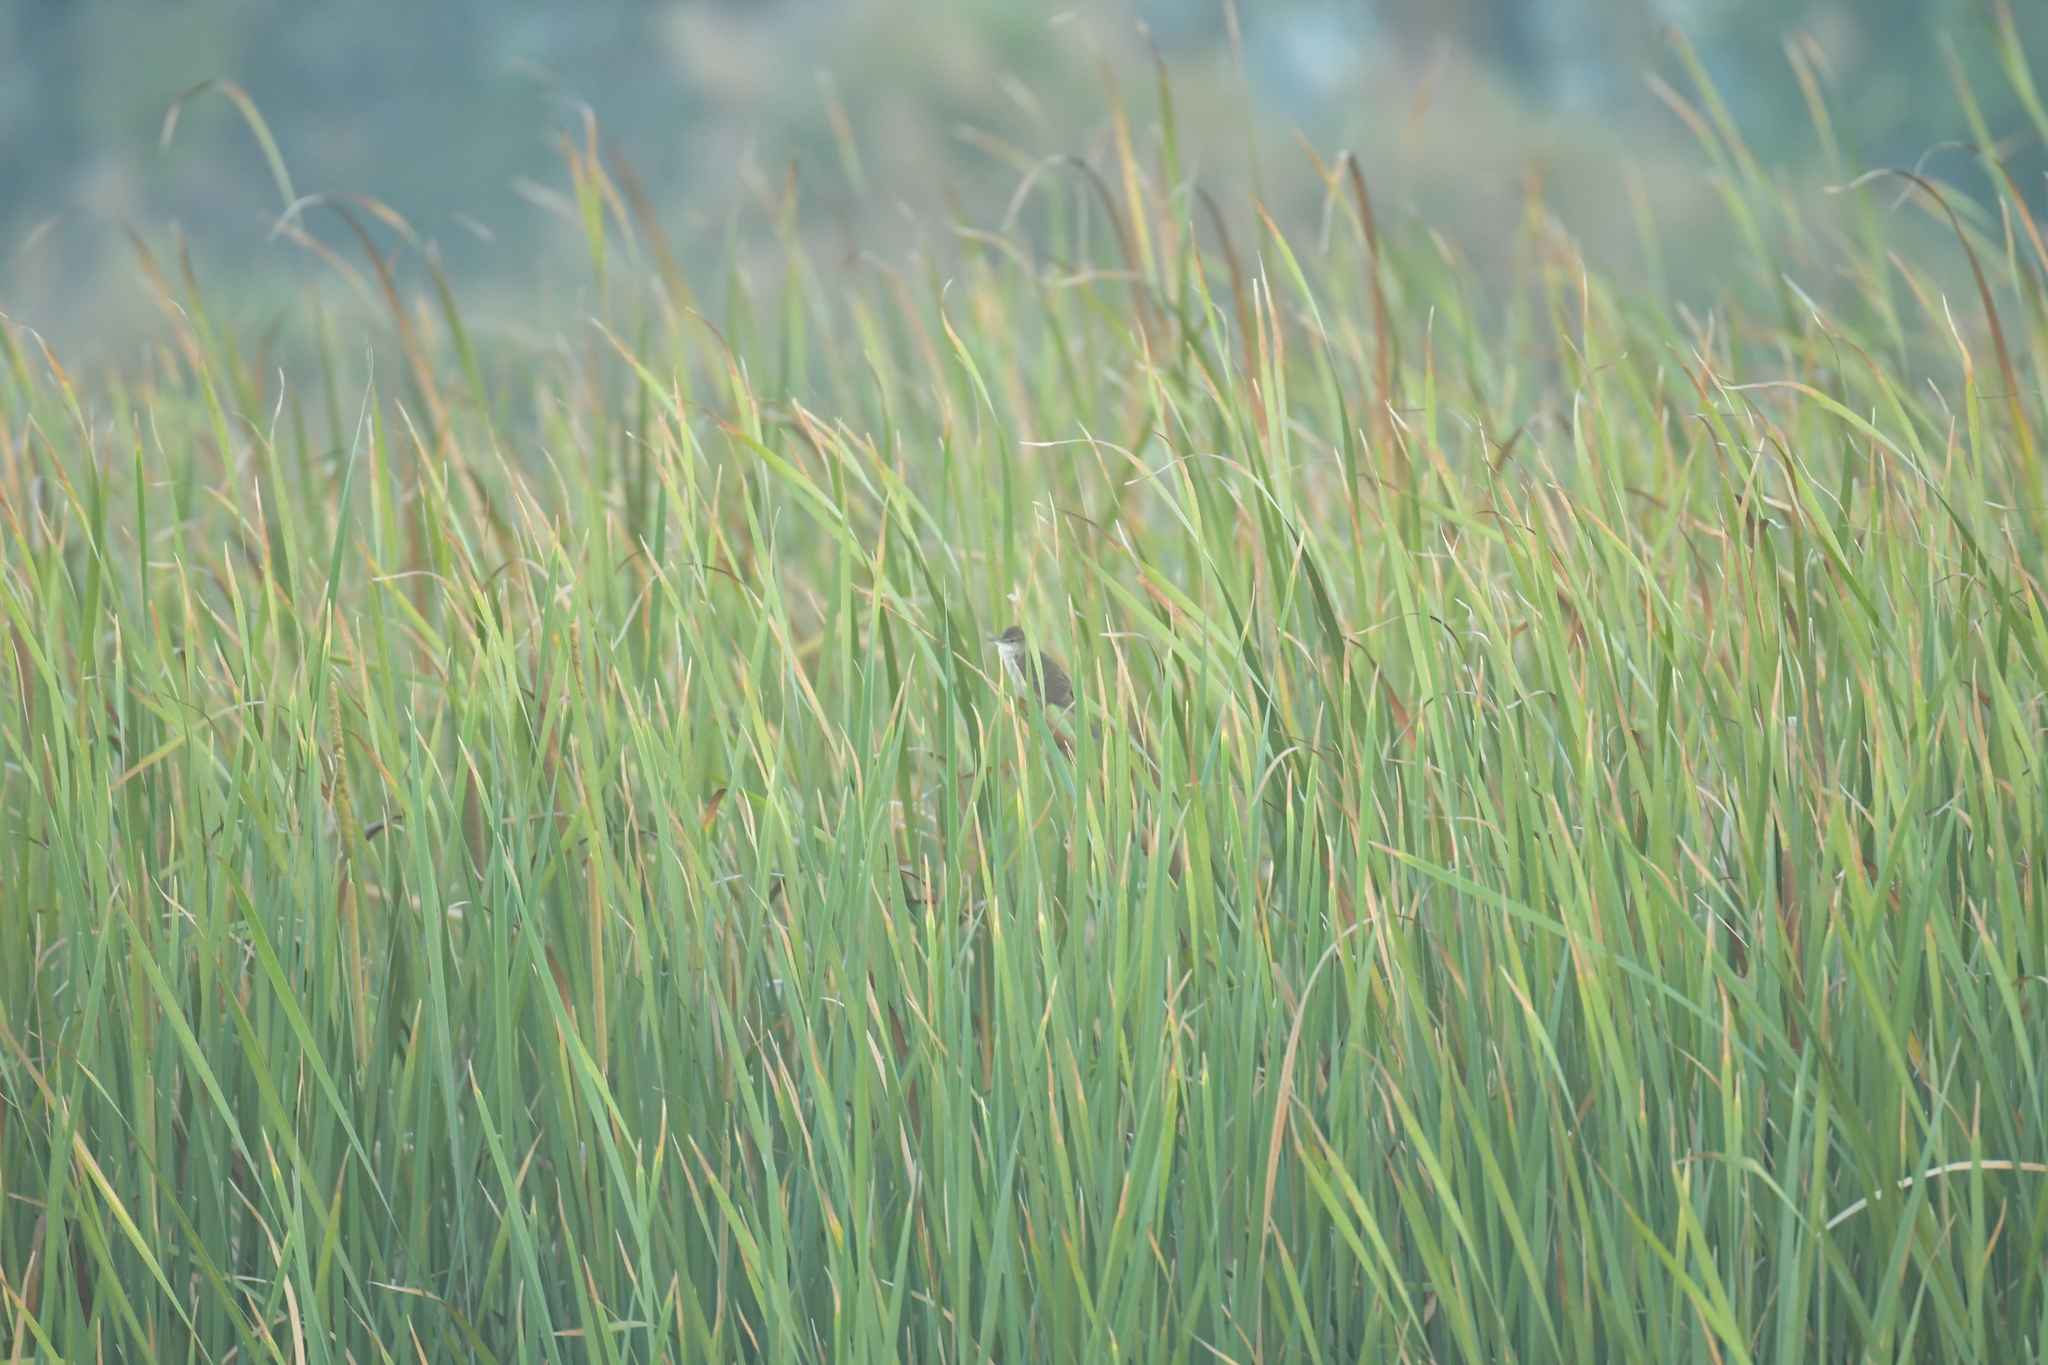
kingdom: Animalia
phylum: Chordata
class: Aves
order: Passeriformes
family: Acrocephalidae
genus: Acrocephalus
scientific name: Acrocephalus orientalis
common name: Oriental reed warbler
